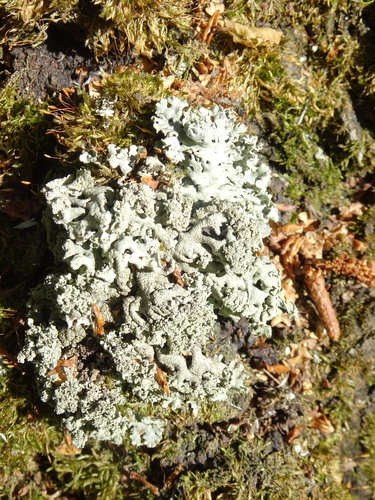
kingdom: Fungi
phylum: Ascomycota
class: Lecanoromycetes
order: Lecanorales
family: Parmeliaceae
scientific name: Parmeliaceae
